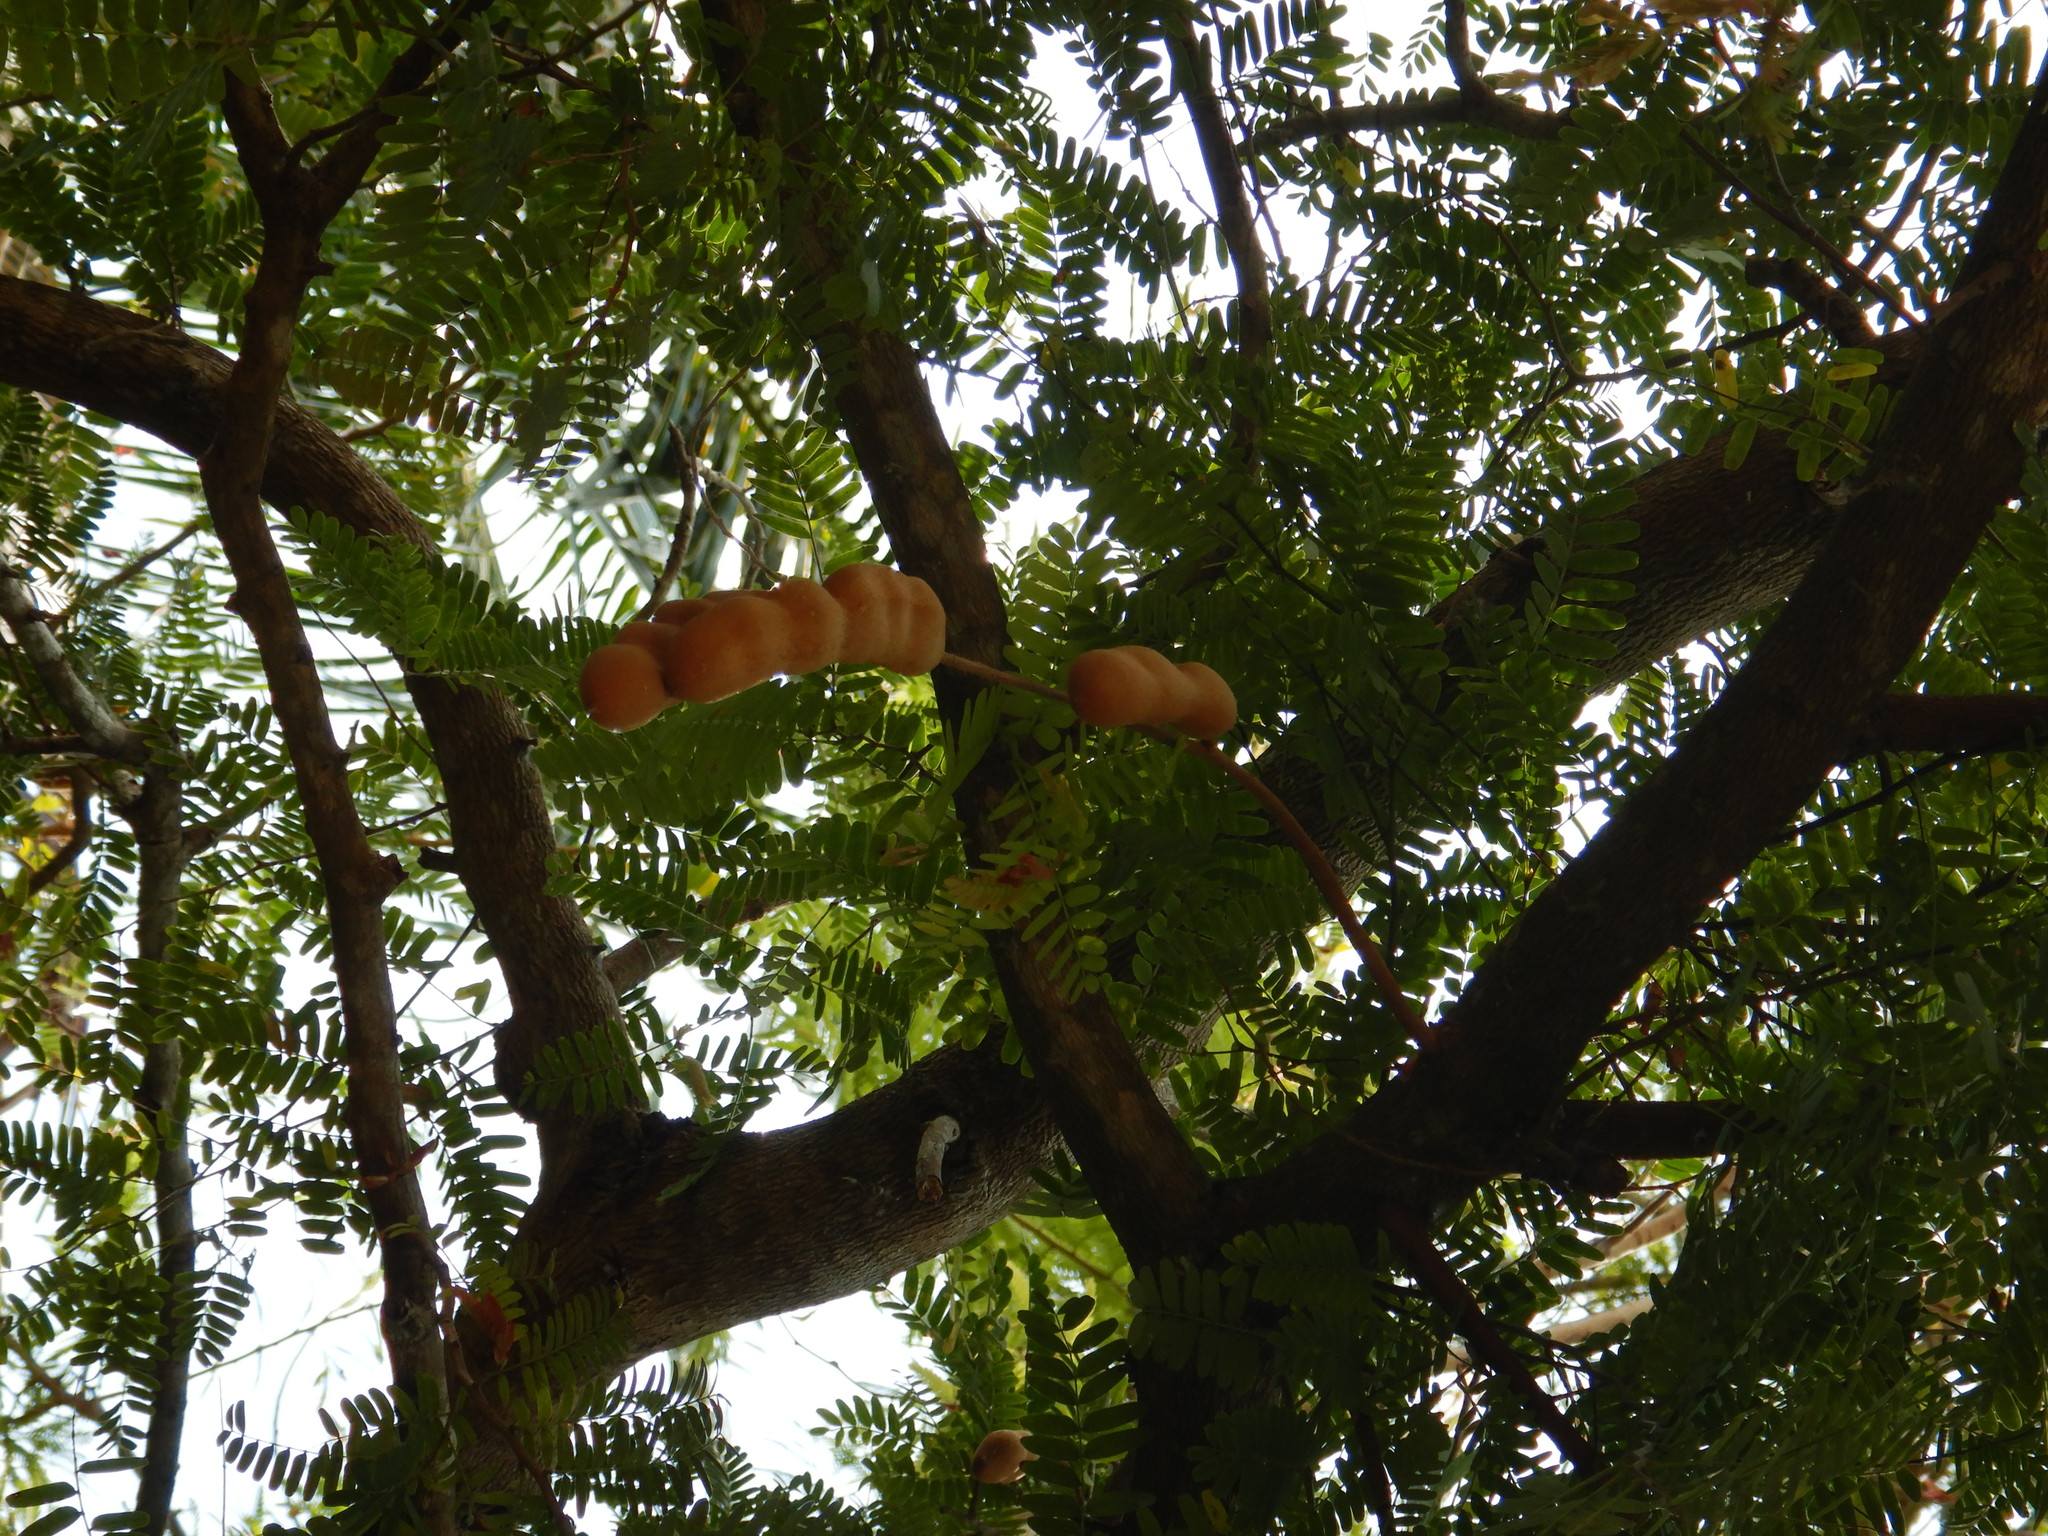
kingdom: Plantae
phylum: Tracheophyta
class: Magnoliopsida
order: Fabales
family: Fabaceae
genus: Tamarindus
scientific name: Tamarindus indica
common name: Tamarind
